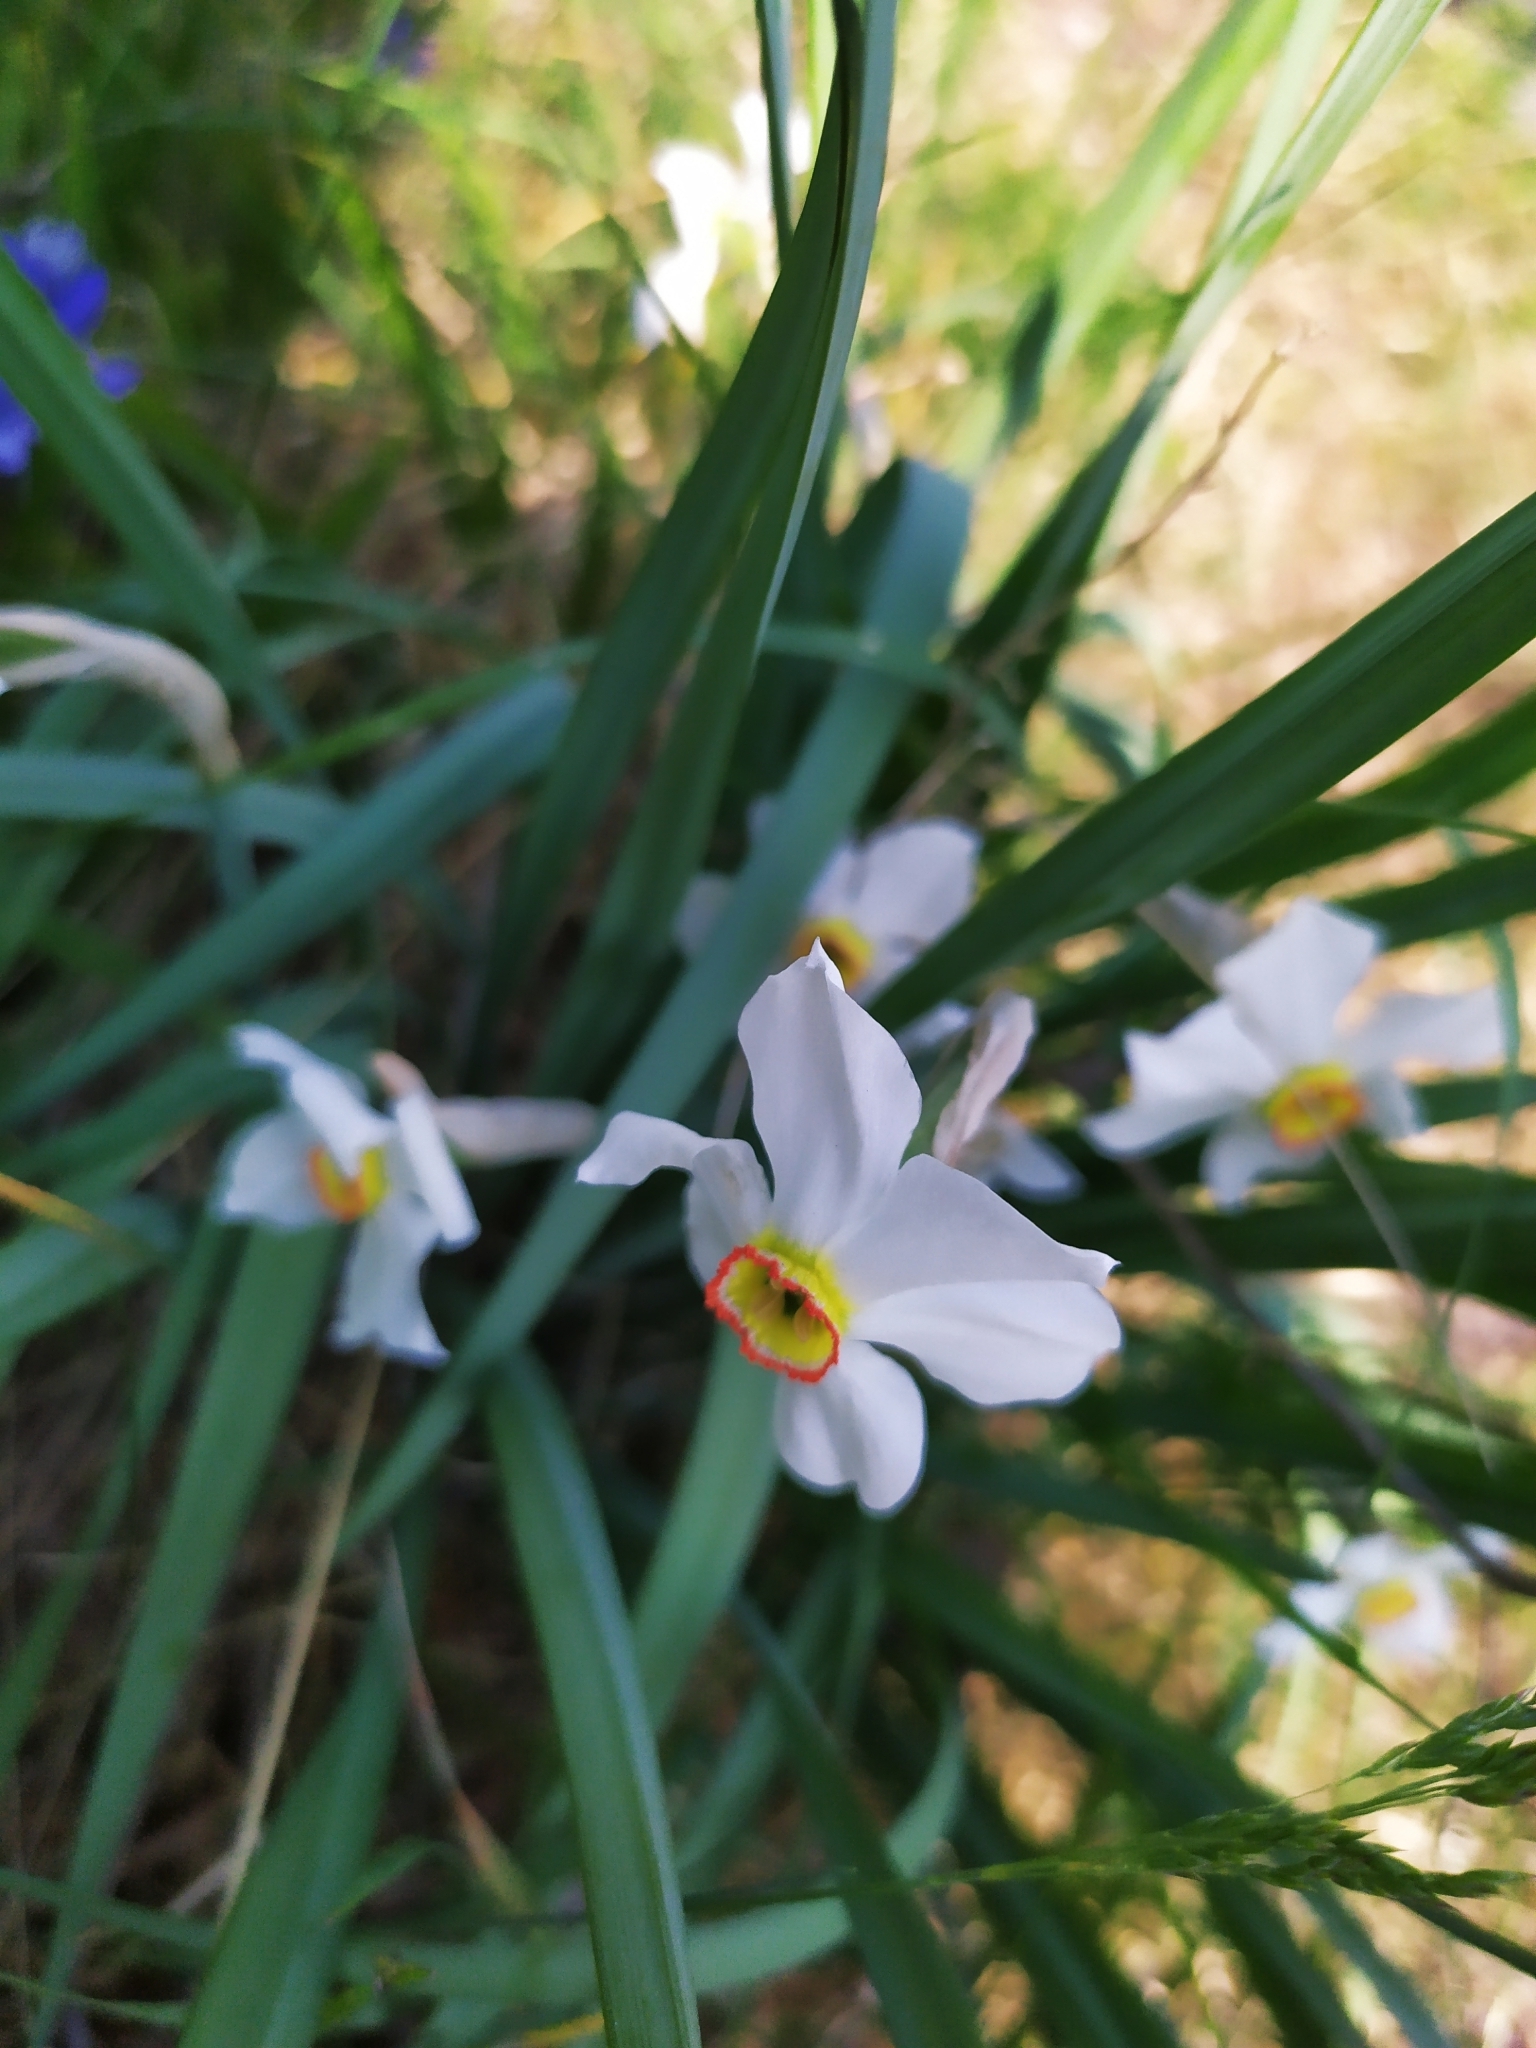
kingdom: Plantae
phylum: Tracheophyta
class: Liliopsida
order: Asparagales
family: Amaryllidaceae
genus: Narcissus
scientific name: Narcissus poeticus
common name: Pheasant's-eye daffodil
